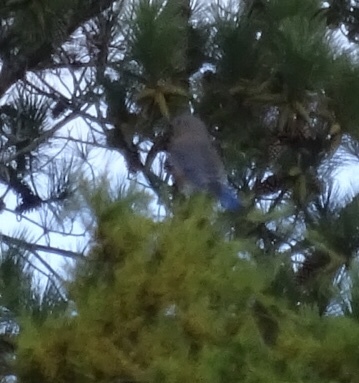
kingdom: Animalia
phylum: Chordata
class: Aves
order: Passeriformes
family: Turdidae
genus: Sialia
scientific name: Sialia sialis
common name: Eastern bluebird
